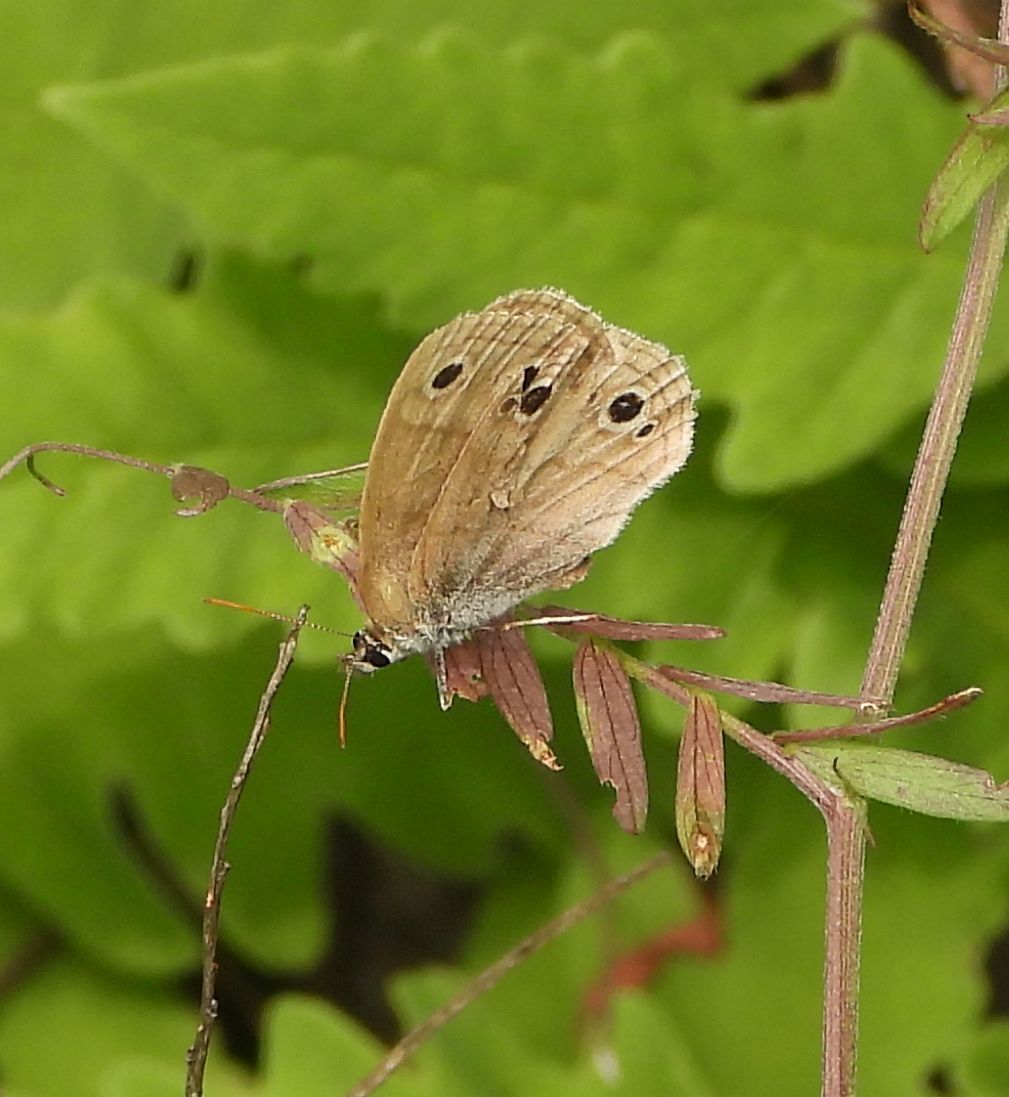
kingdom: Animalia
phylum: Arthropoda
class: Insecta
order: Lepidoptera
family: Nymphalidae
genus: Euptychia
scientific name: Euptychia cymela
